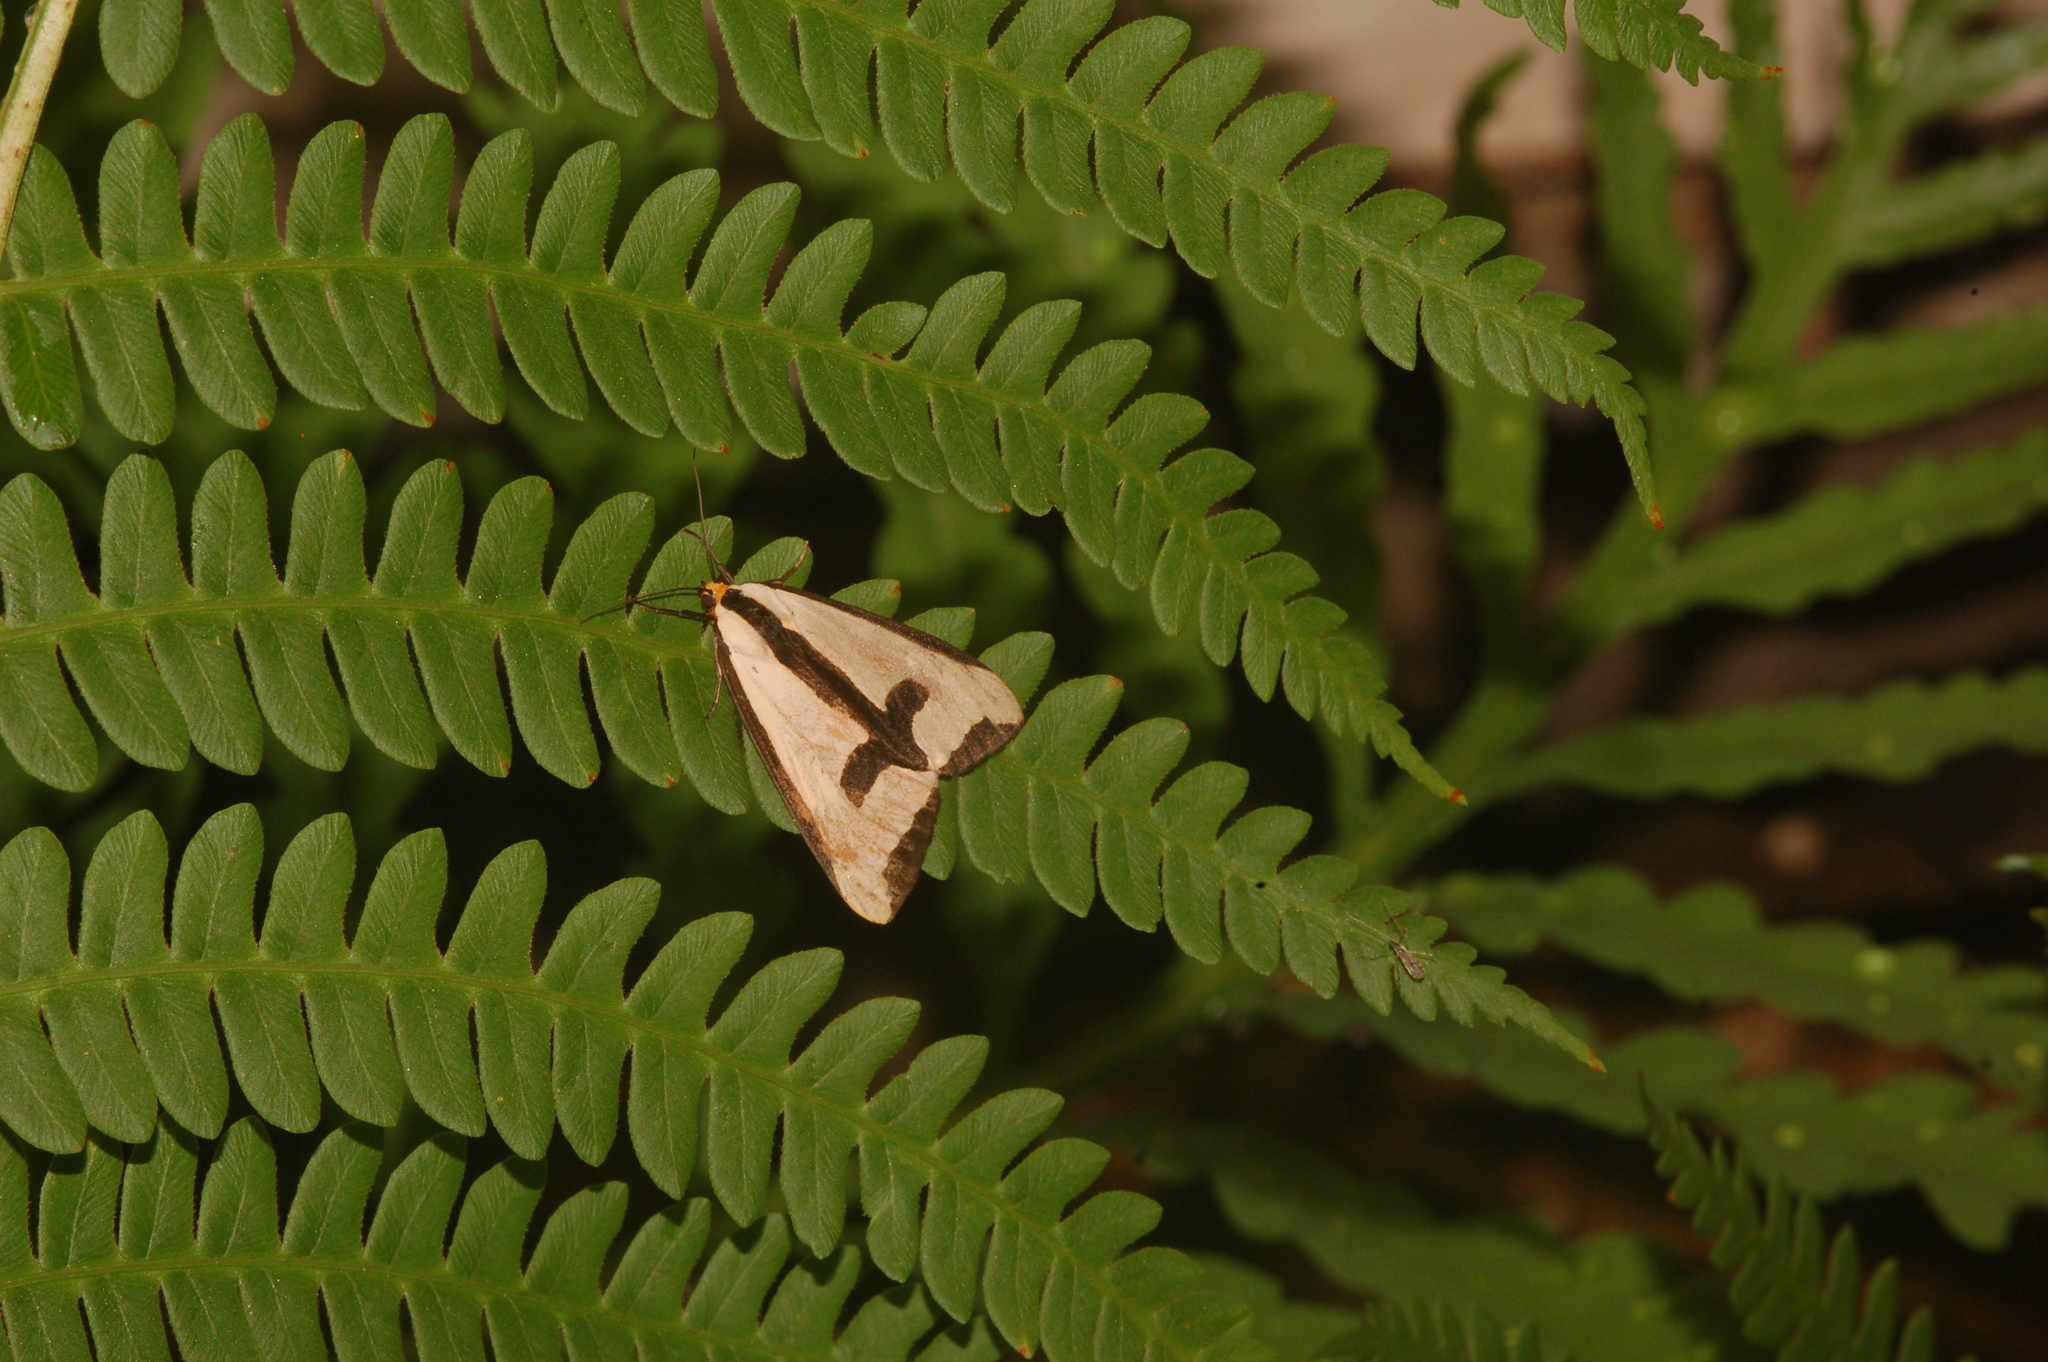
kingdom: Animalia
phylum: Arthropoda
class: Insecta
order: Lepidoptera
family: Erebidae
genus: Haploa
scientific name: Haploa clymene
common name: Clymene moth
